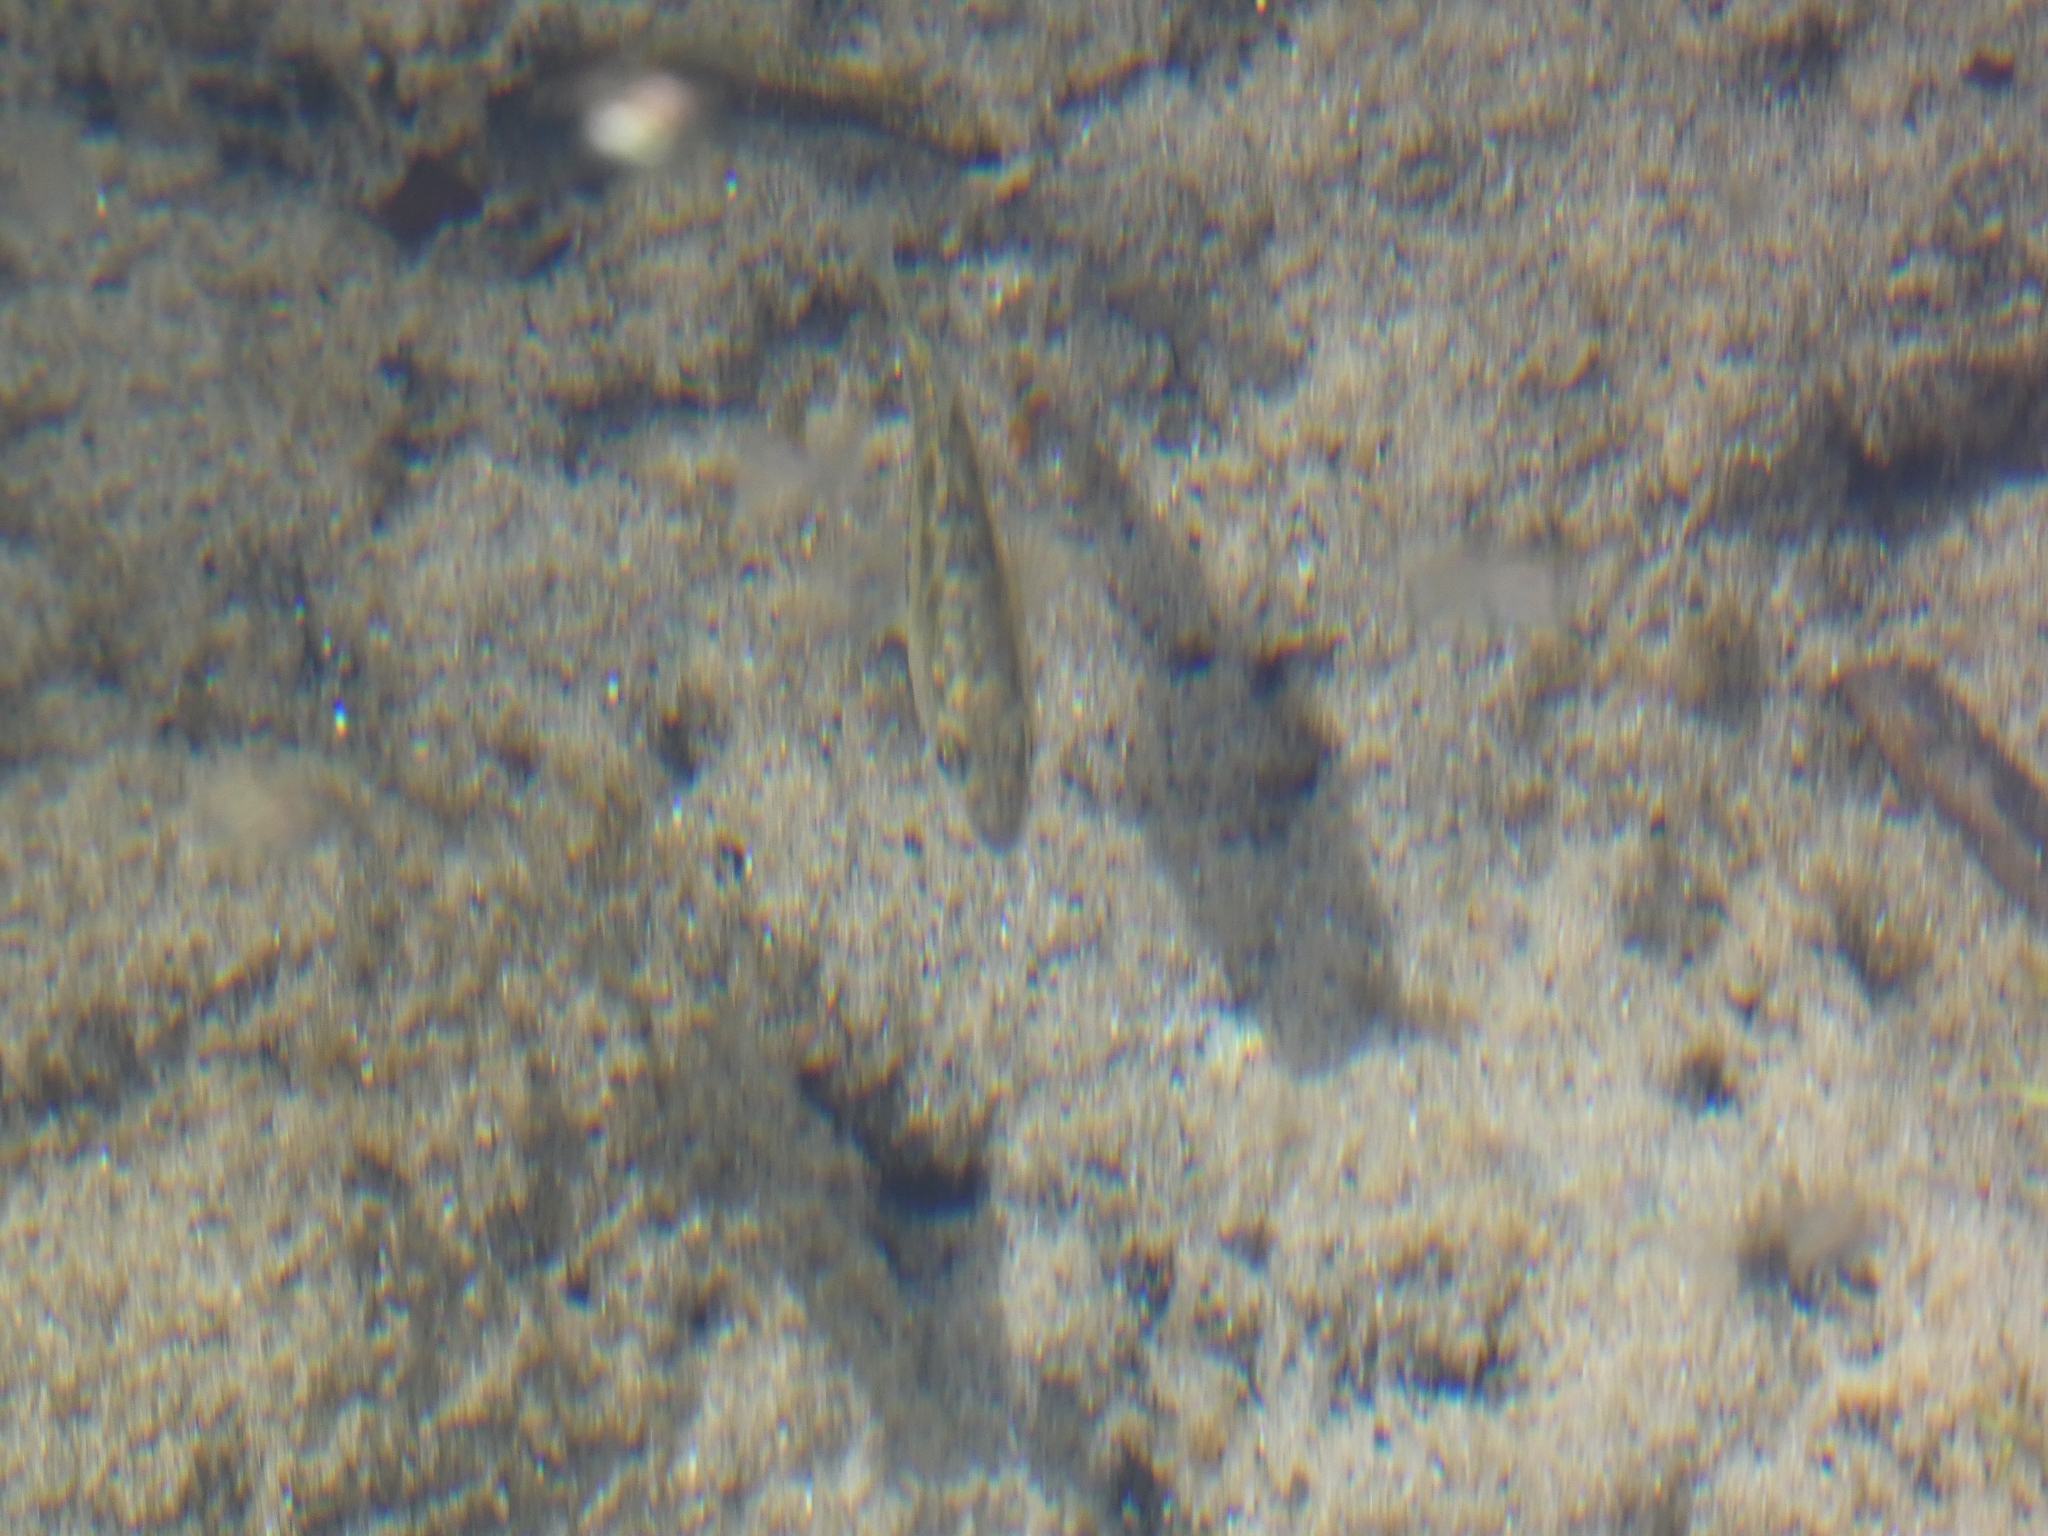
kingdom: Animalia
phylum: Chordata
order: Gasterosteiformes
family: Gasterosteidae
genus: Gasterosteus
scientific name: Gasterosteus aculeatus
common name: Three-spined stickleback
